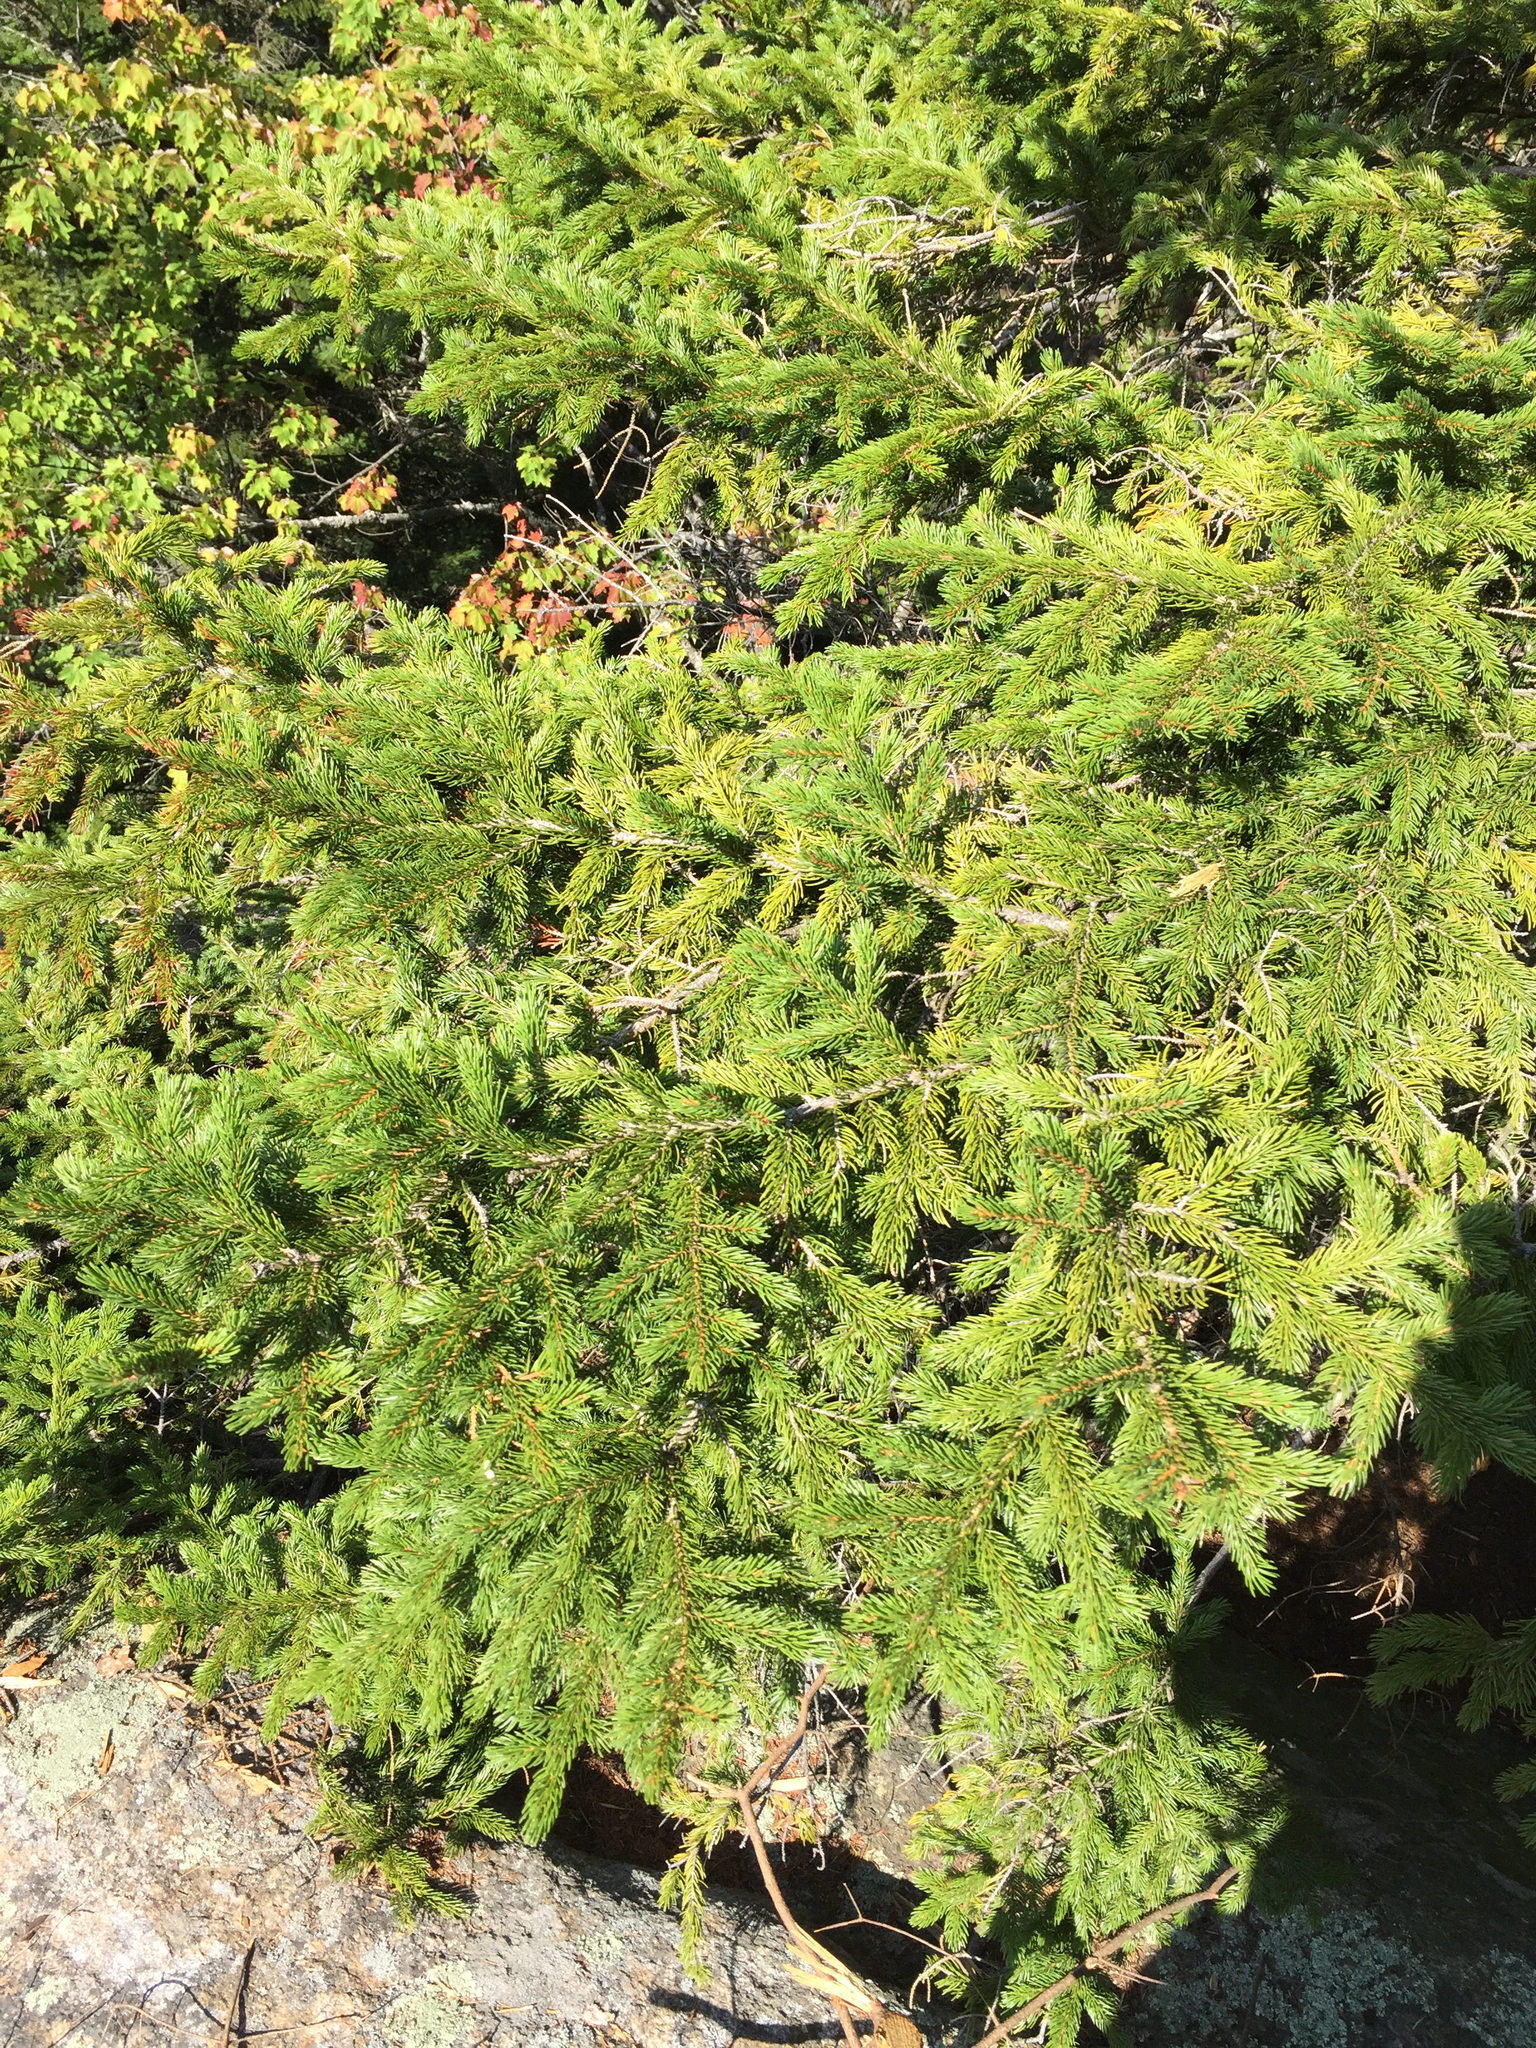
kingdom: Plantae
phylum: Tracheophyta
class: Pinopsida
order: Pinales
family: Pinaceae
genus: Picea
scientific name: Picea rubens
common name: Red spruce
